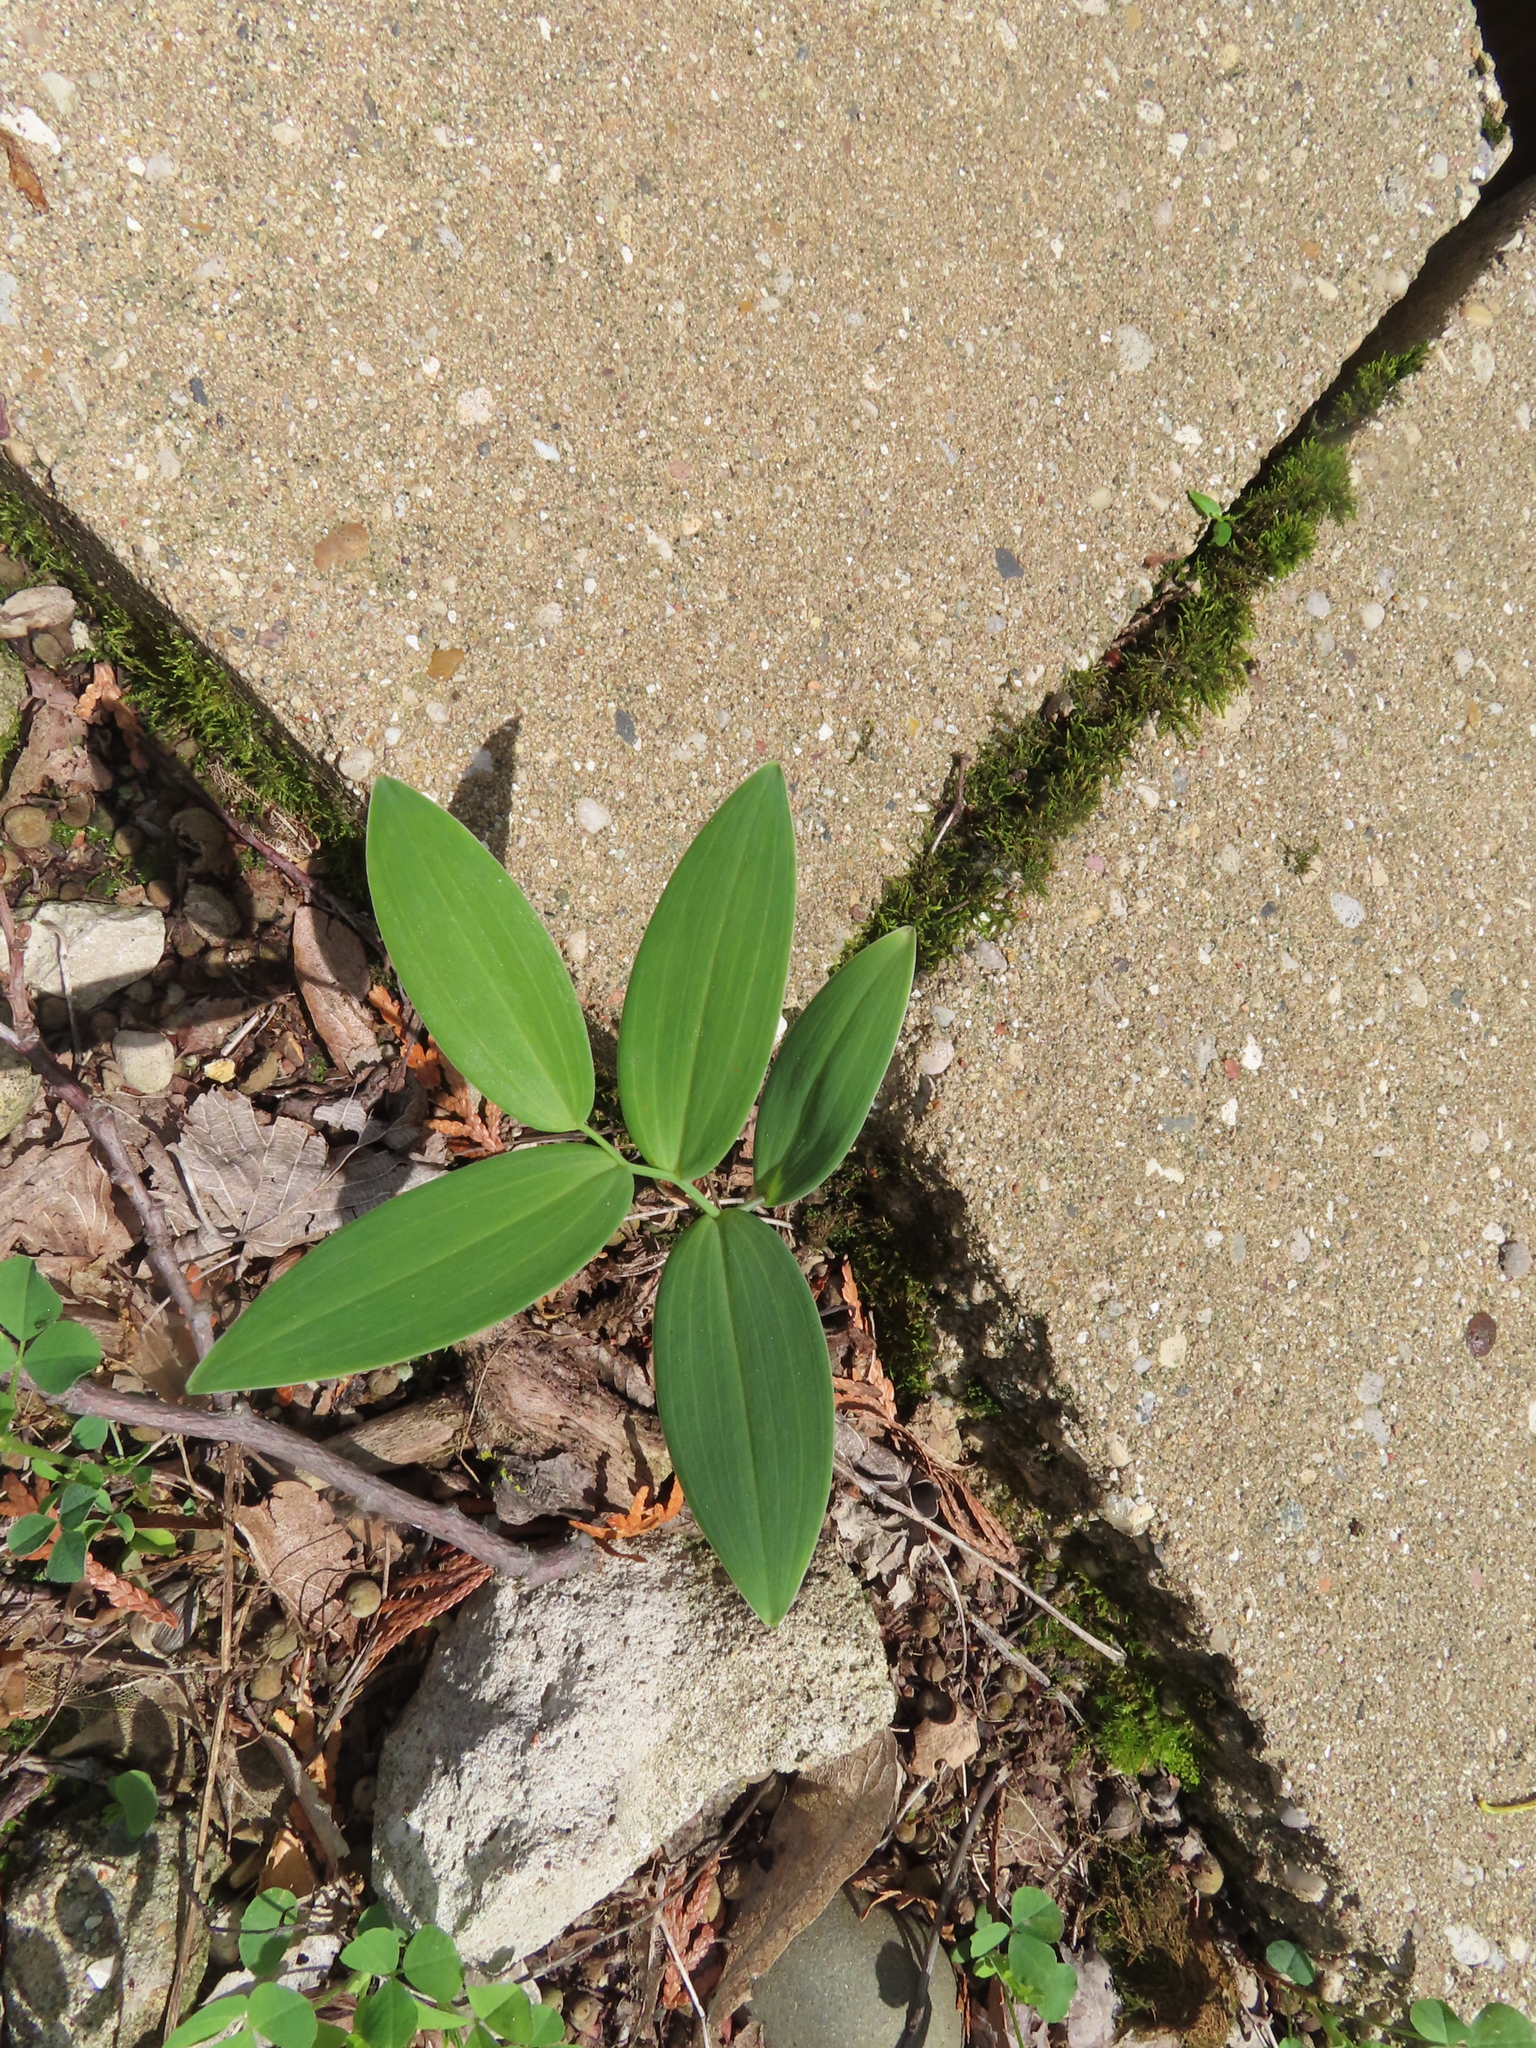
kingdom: Plantae
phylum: Tracheophyta
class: Liliopsida
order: Asparagales
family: Asparagaceae
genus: Polygonatum
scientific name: Polygonatum
